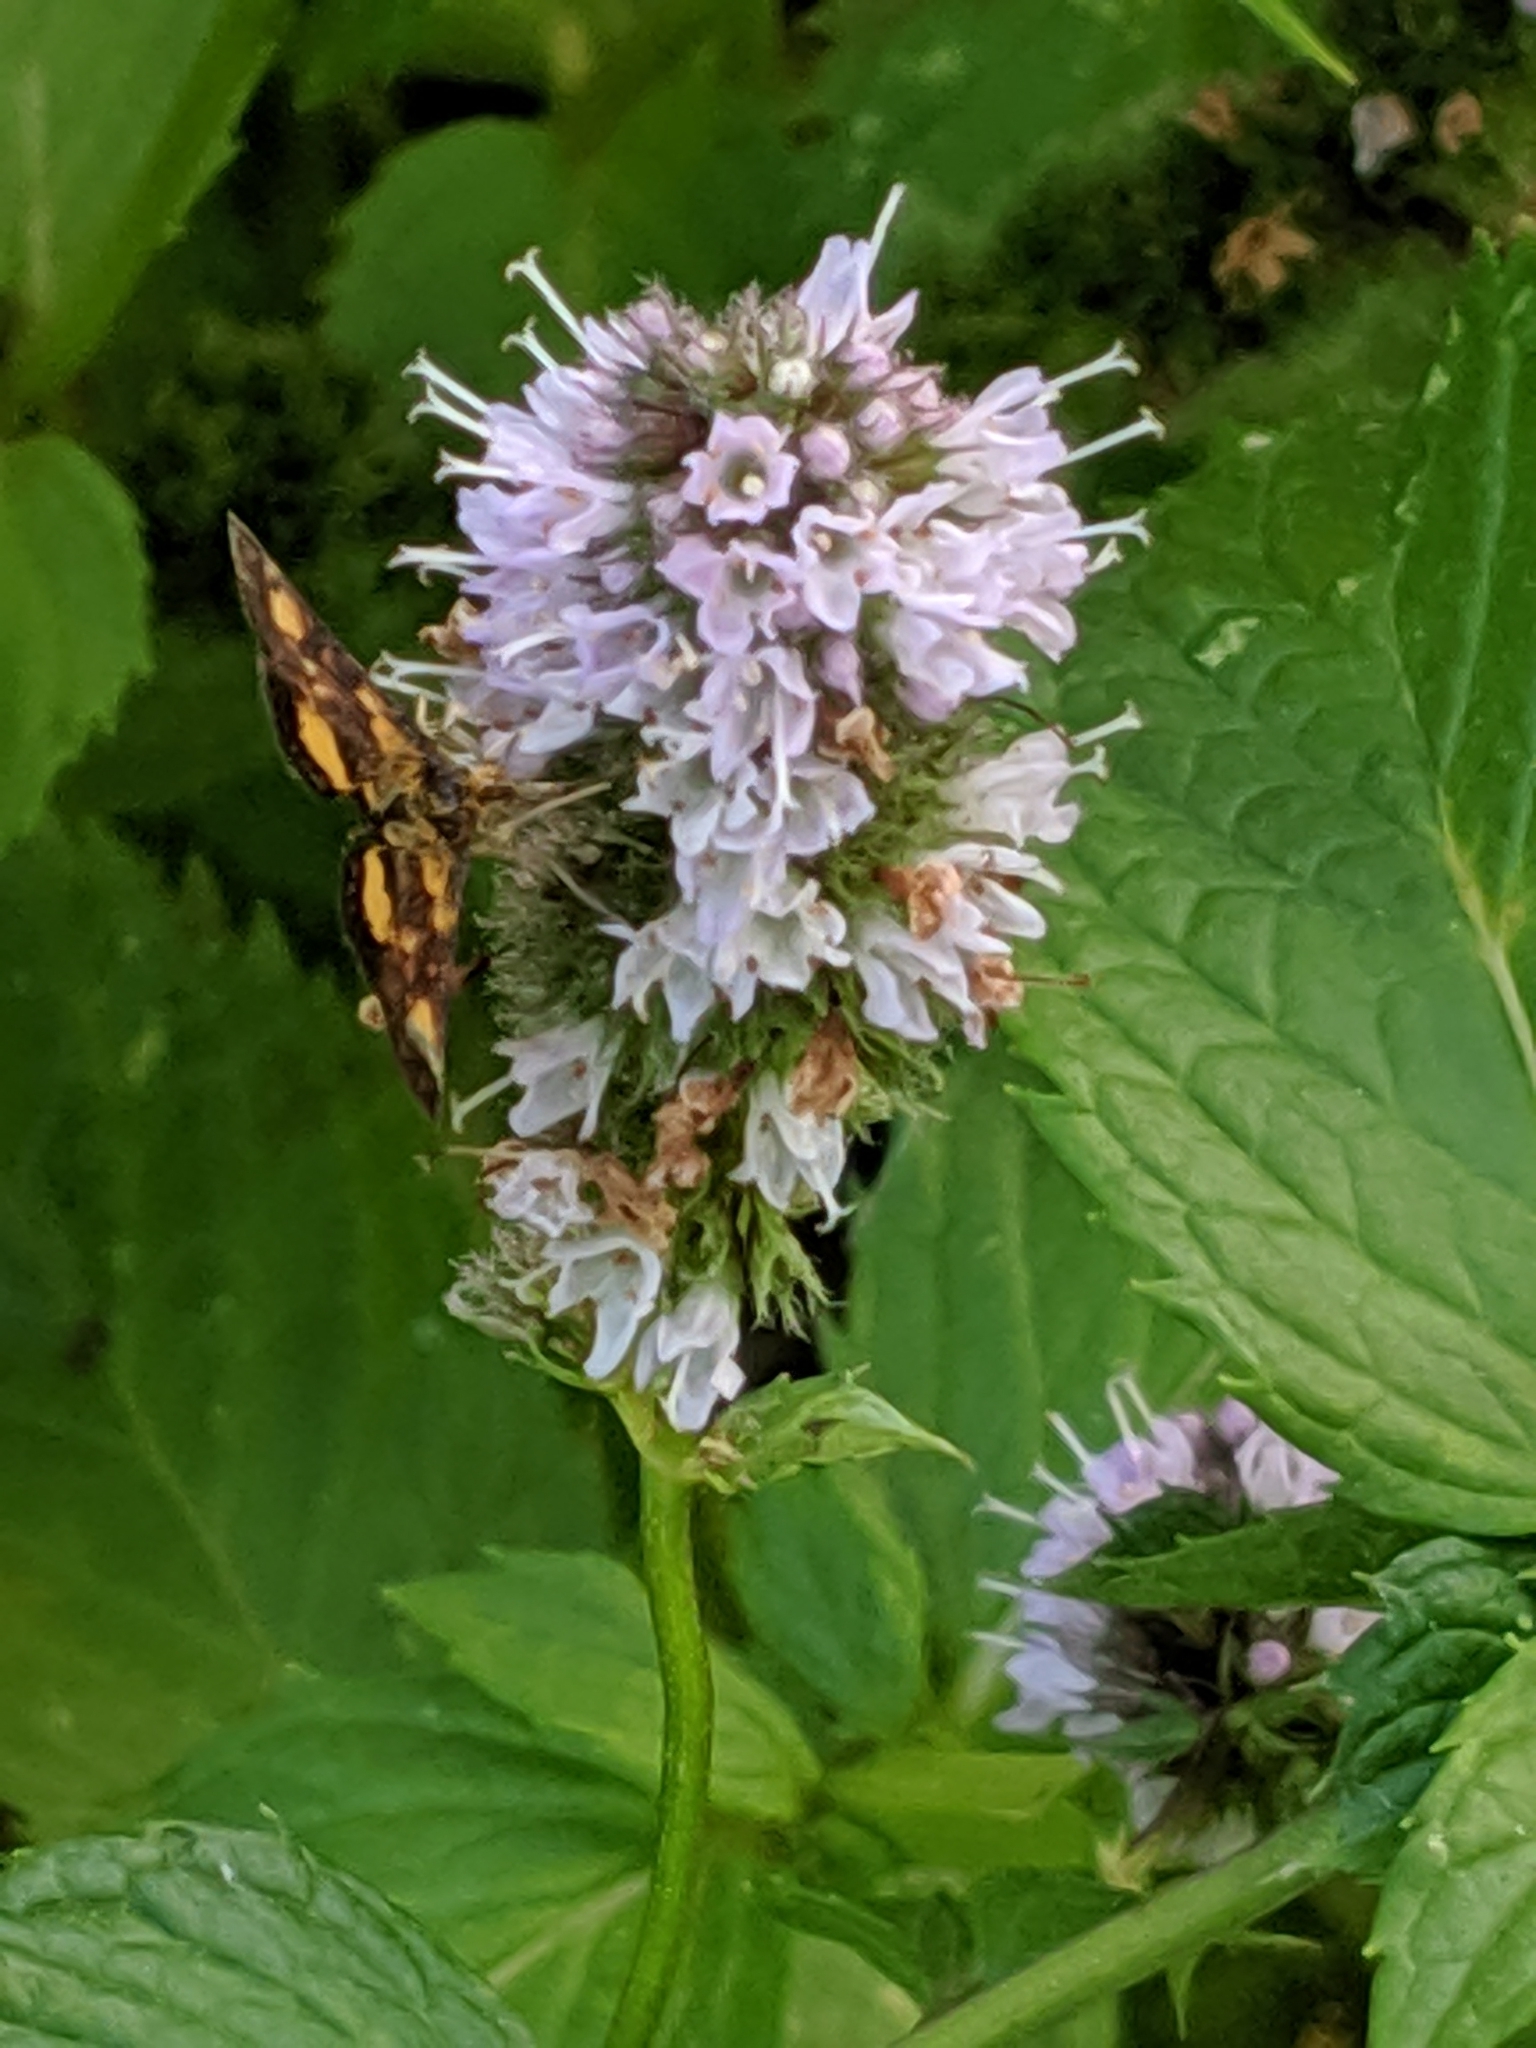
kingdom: Animalia
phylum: Arthropoda
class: Insecta
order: Lepidoptera
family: Crambidae
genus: Pyrausta
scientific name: Pyrausta orphisalis
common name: Orange mint moth
